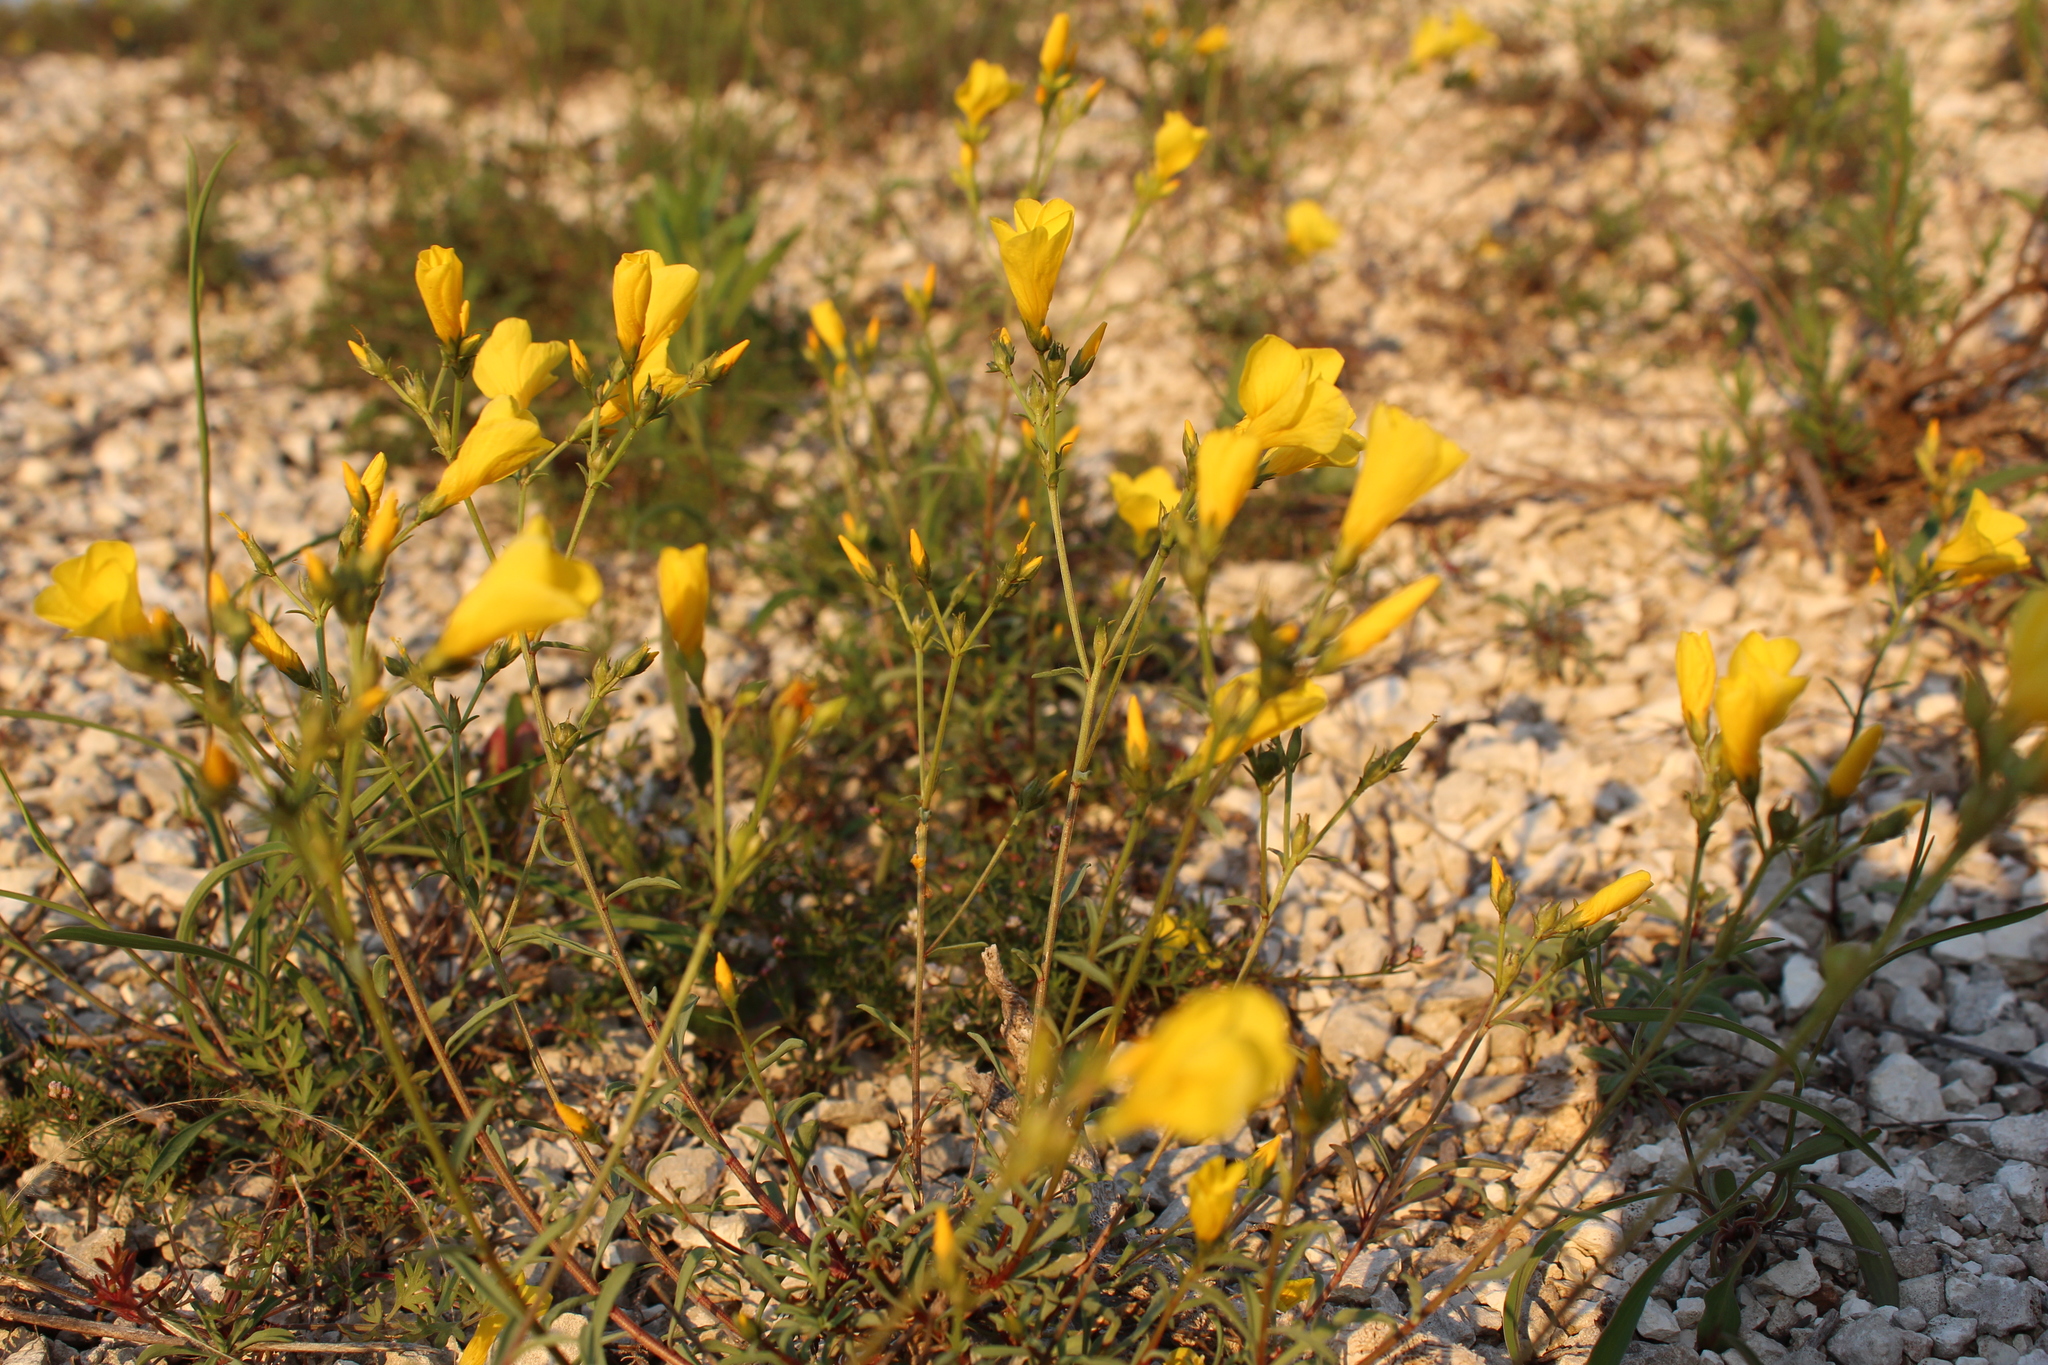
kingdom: Plantae
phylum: Tracheophyta
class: Magnoliopsida
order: Malpighiales
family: Linaceae
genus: Linum
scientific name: Linum ucranicum
